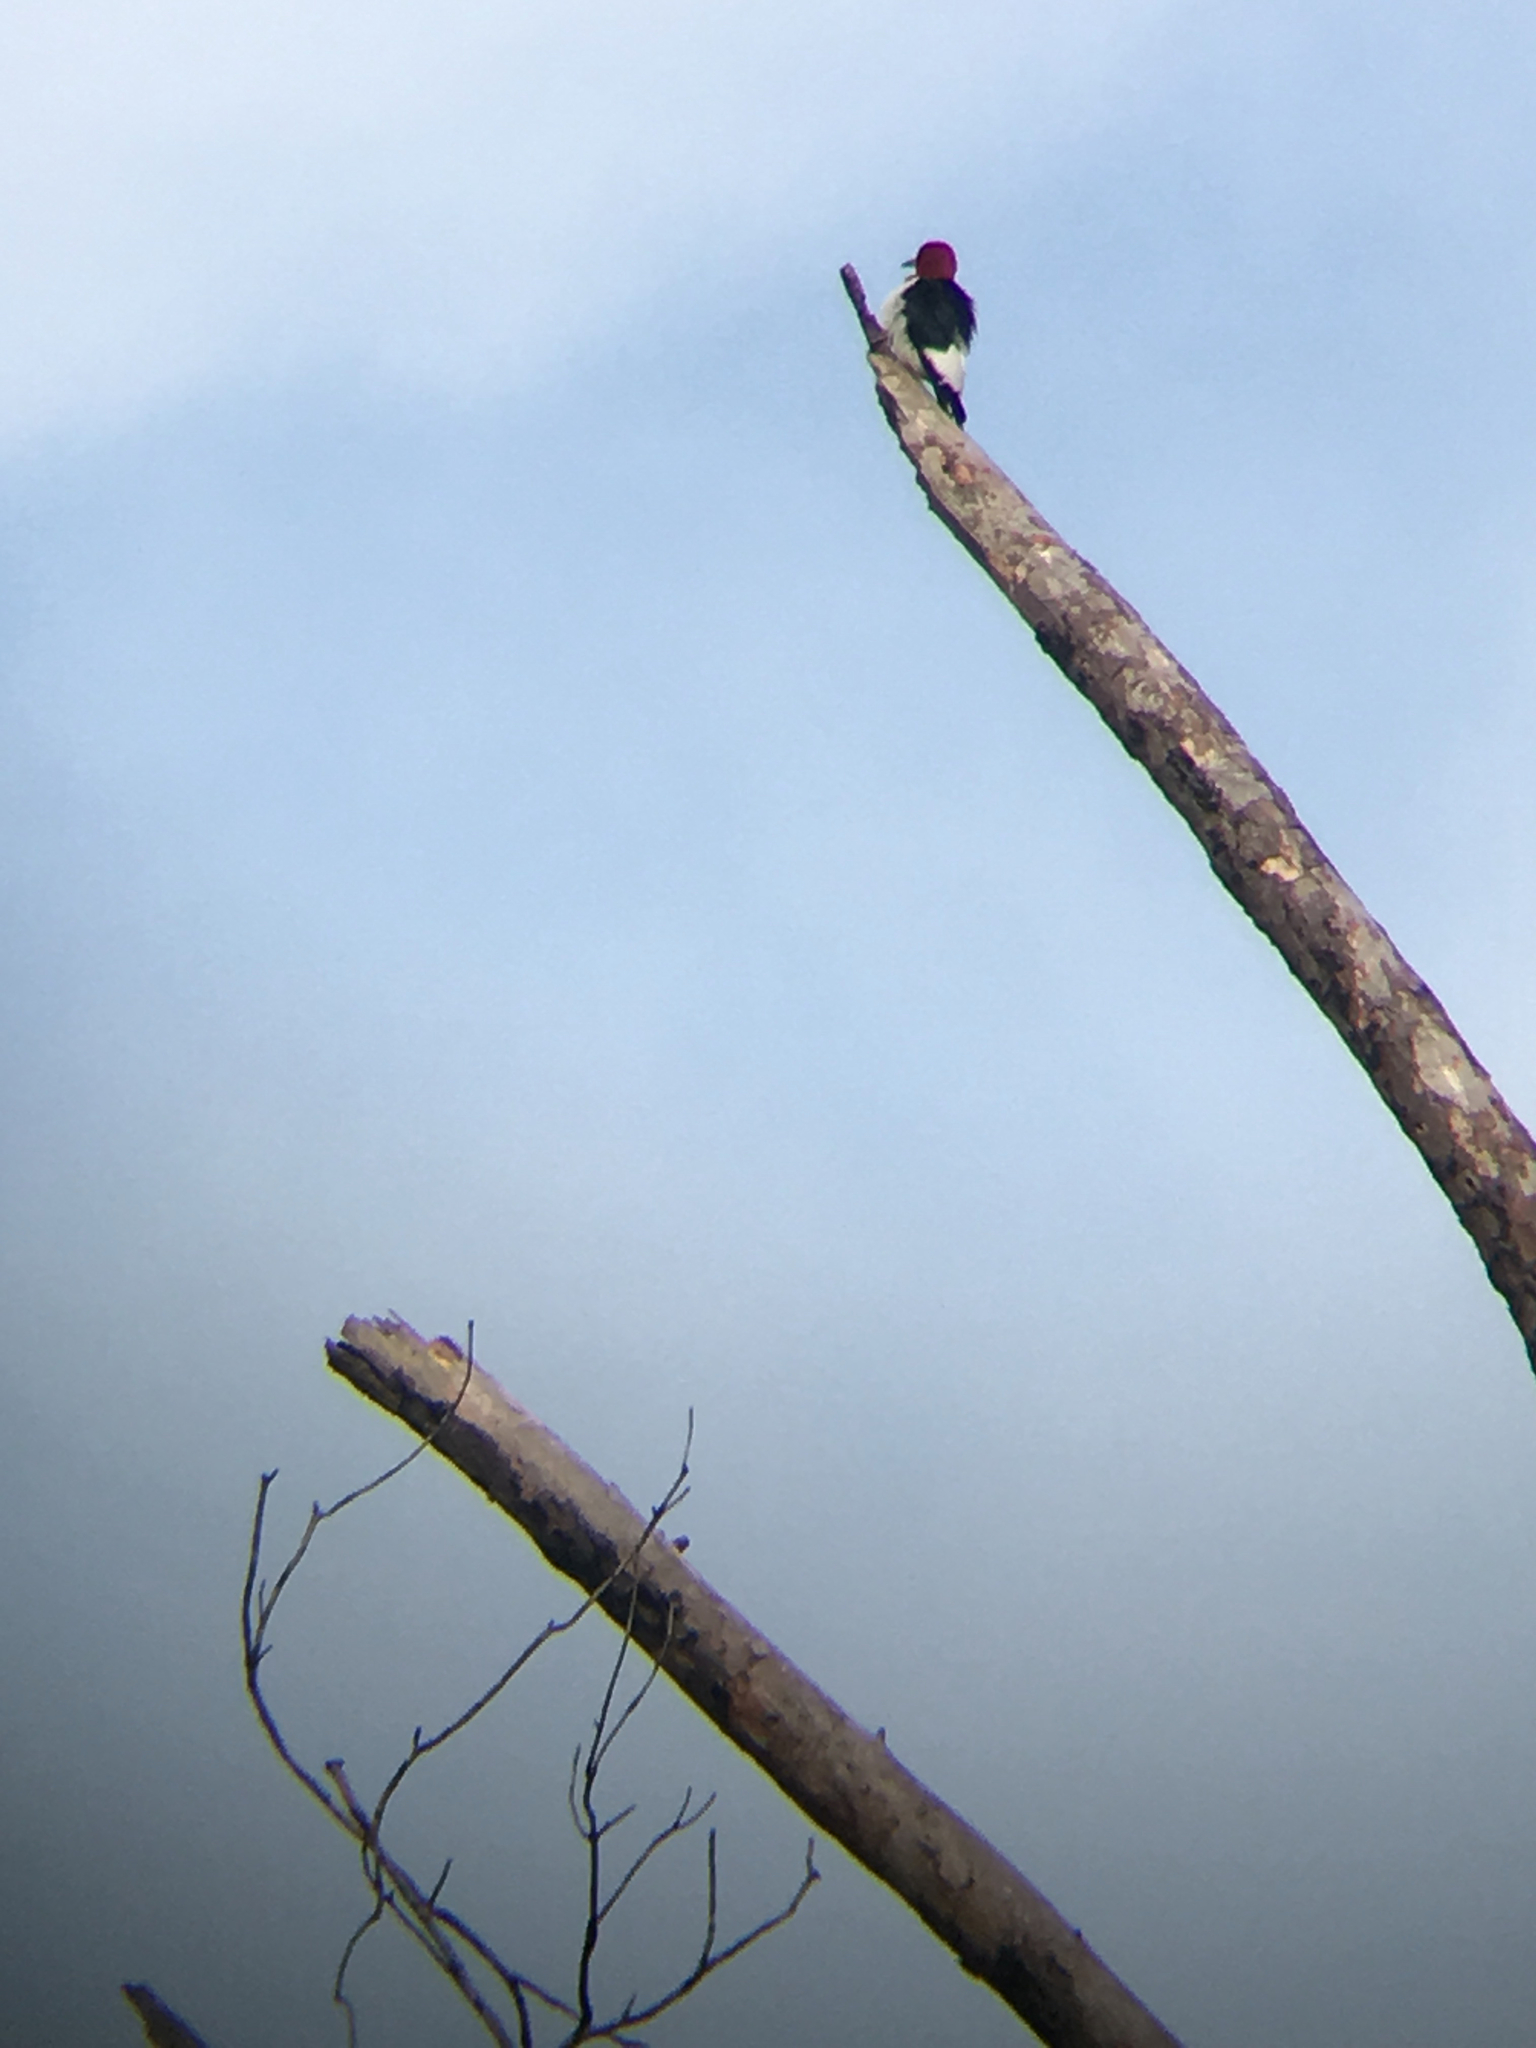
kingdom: Animalia
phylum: Chordata
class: Aves
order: Piciformes
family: Picidae
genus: Melanerpes
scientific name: Melanerpes erythrocephalus
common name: Red-headed woodpecker
